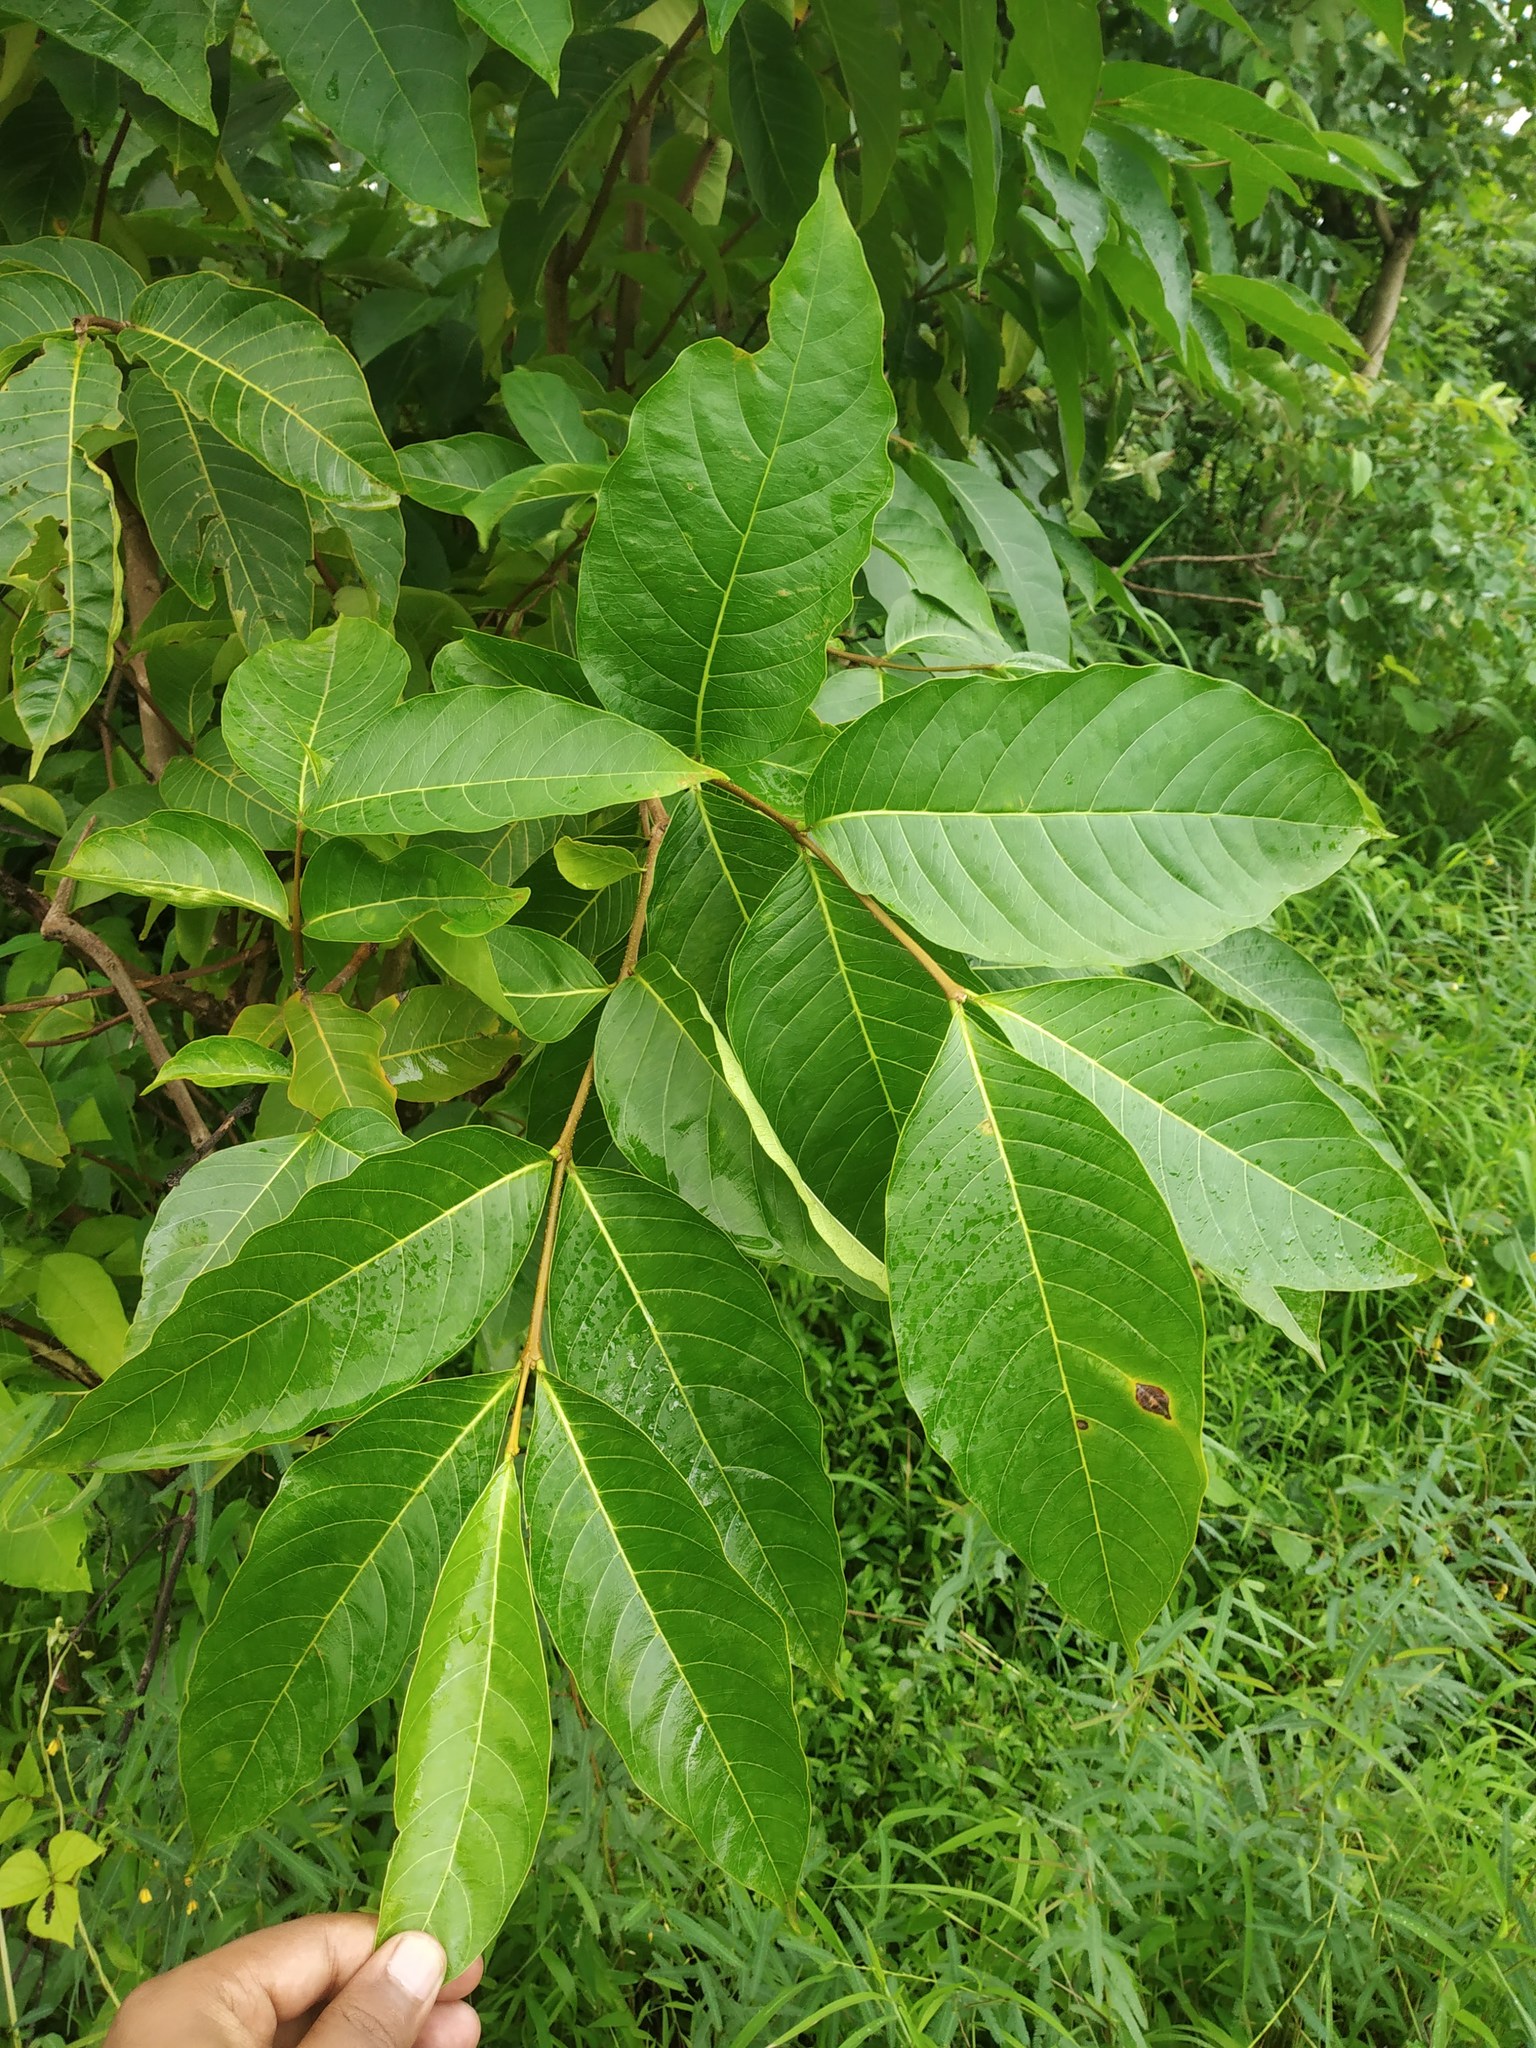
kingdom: Plantae
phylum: Tracheophyta
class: Magnoliopsida
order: Gentianales
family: Apocynaceae
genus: Holarrhena
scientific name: Holarrhena pubescens
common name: Bitter oleander
